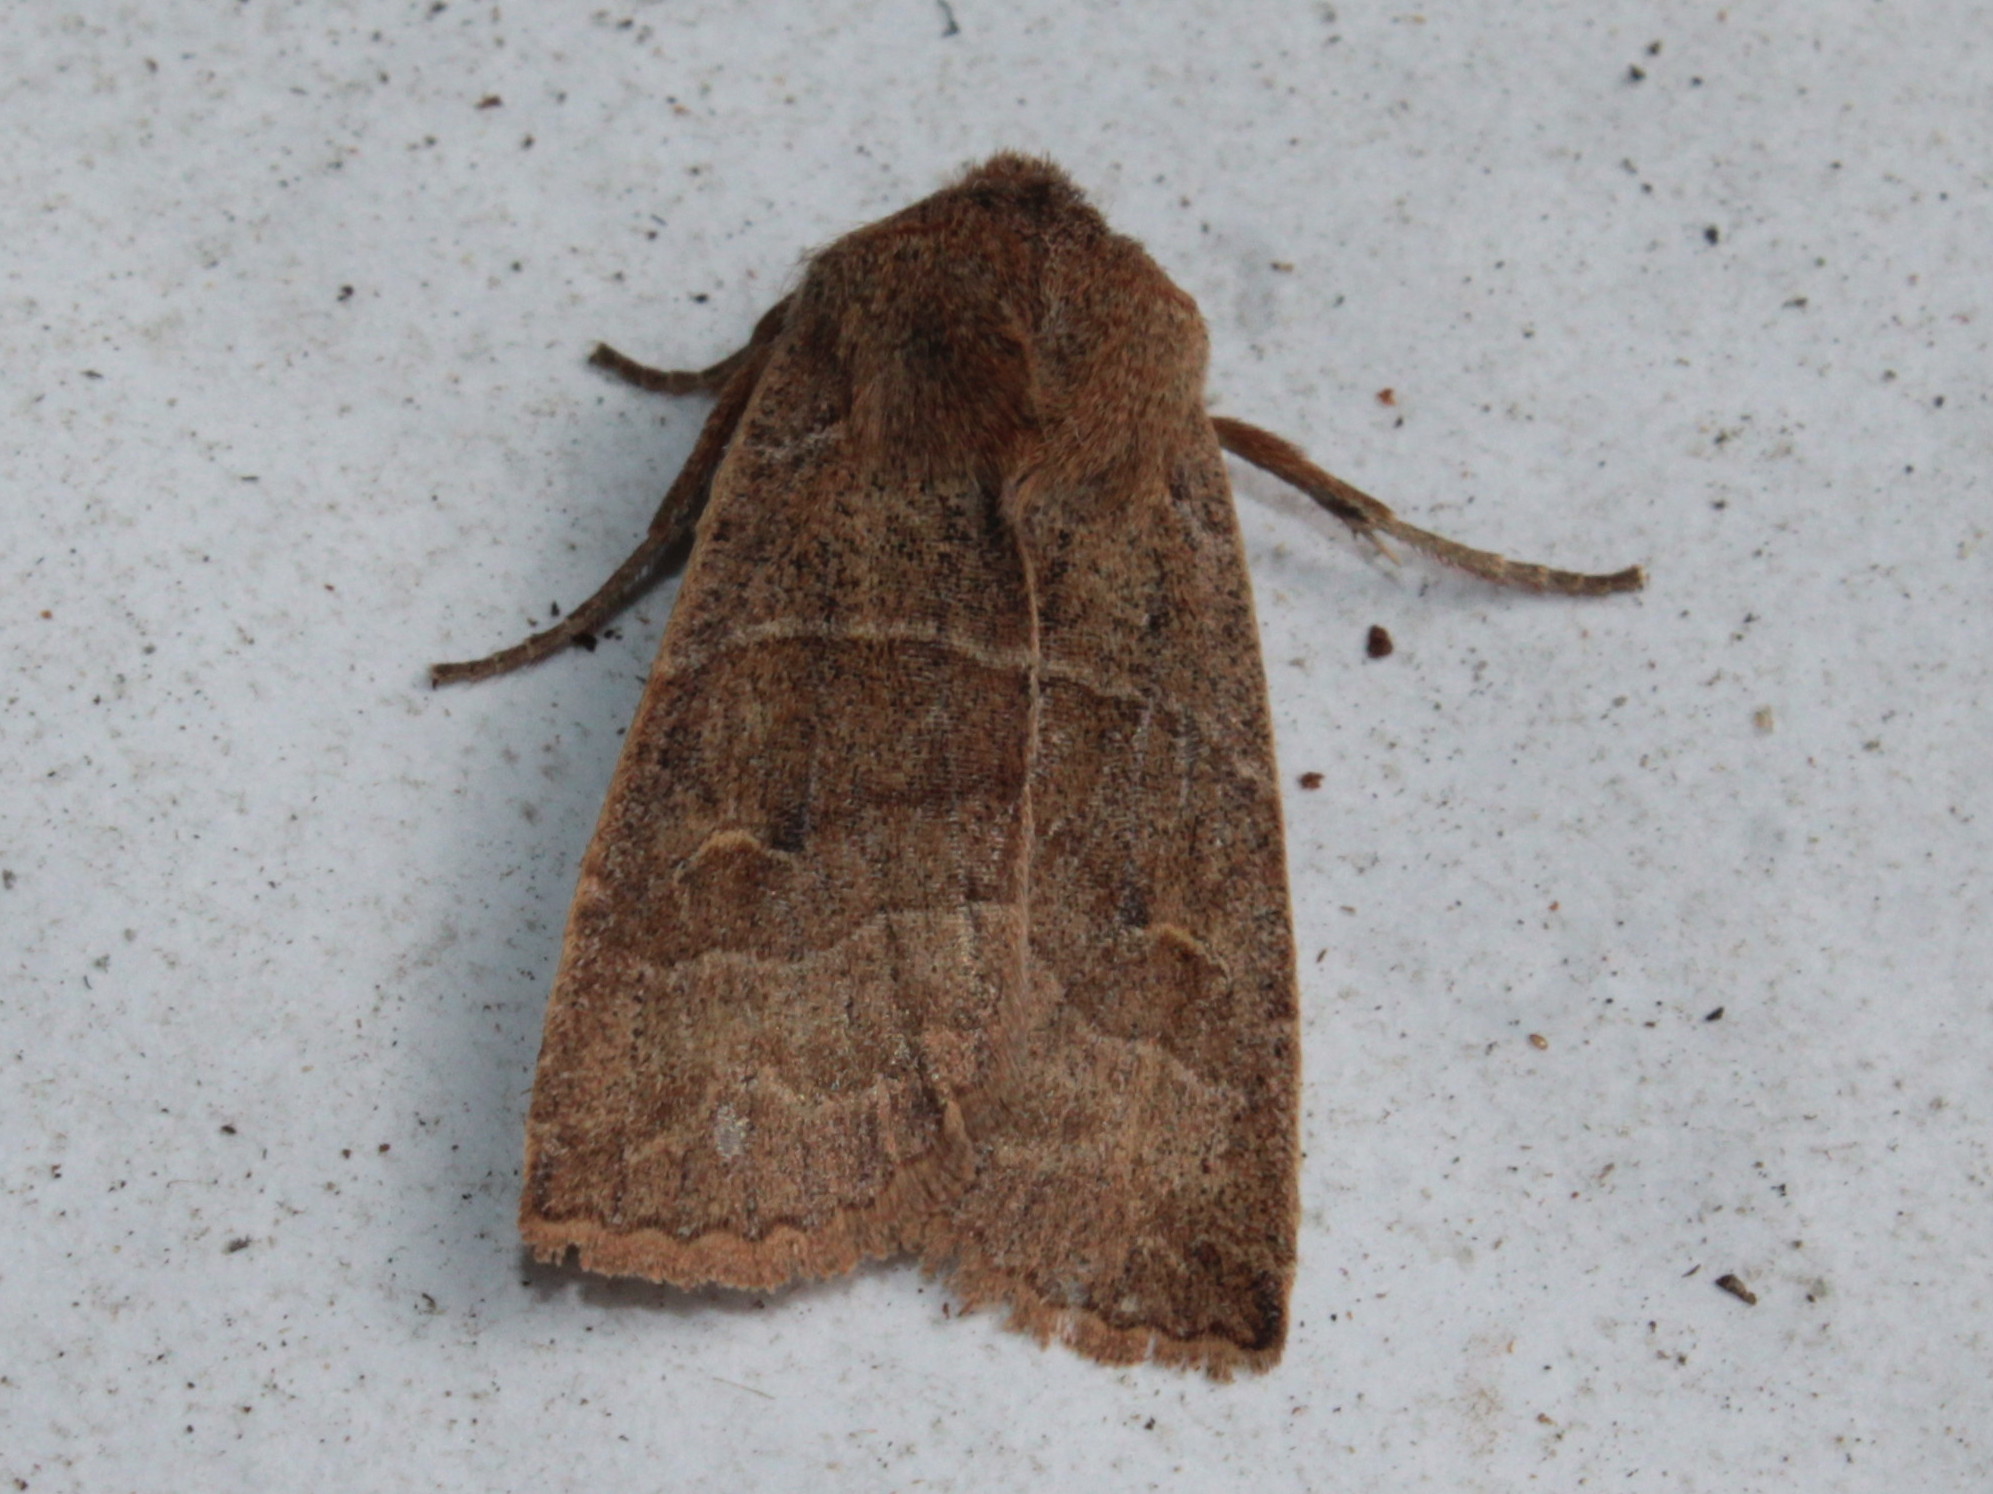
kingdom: Animalia
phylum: Arthropoda
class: Insecta
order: Lepidoptera
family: Noctuidae
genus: Eupsilia
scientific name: Eupsilia morrisoni
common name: Morrison's sallow
